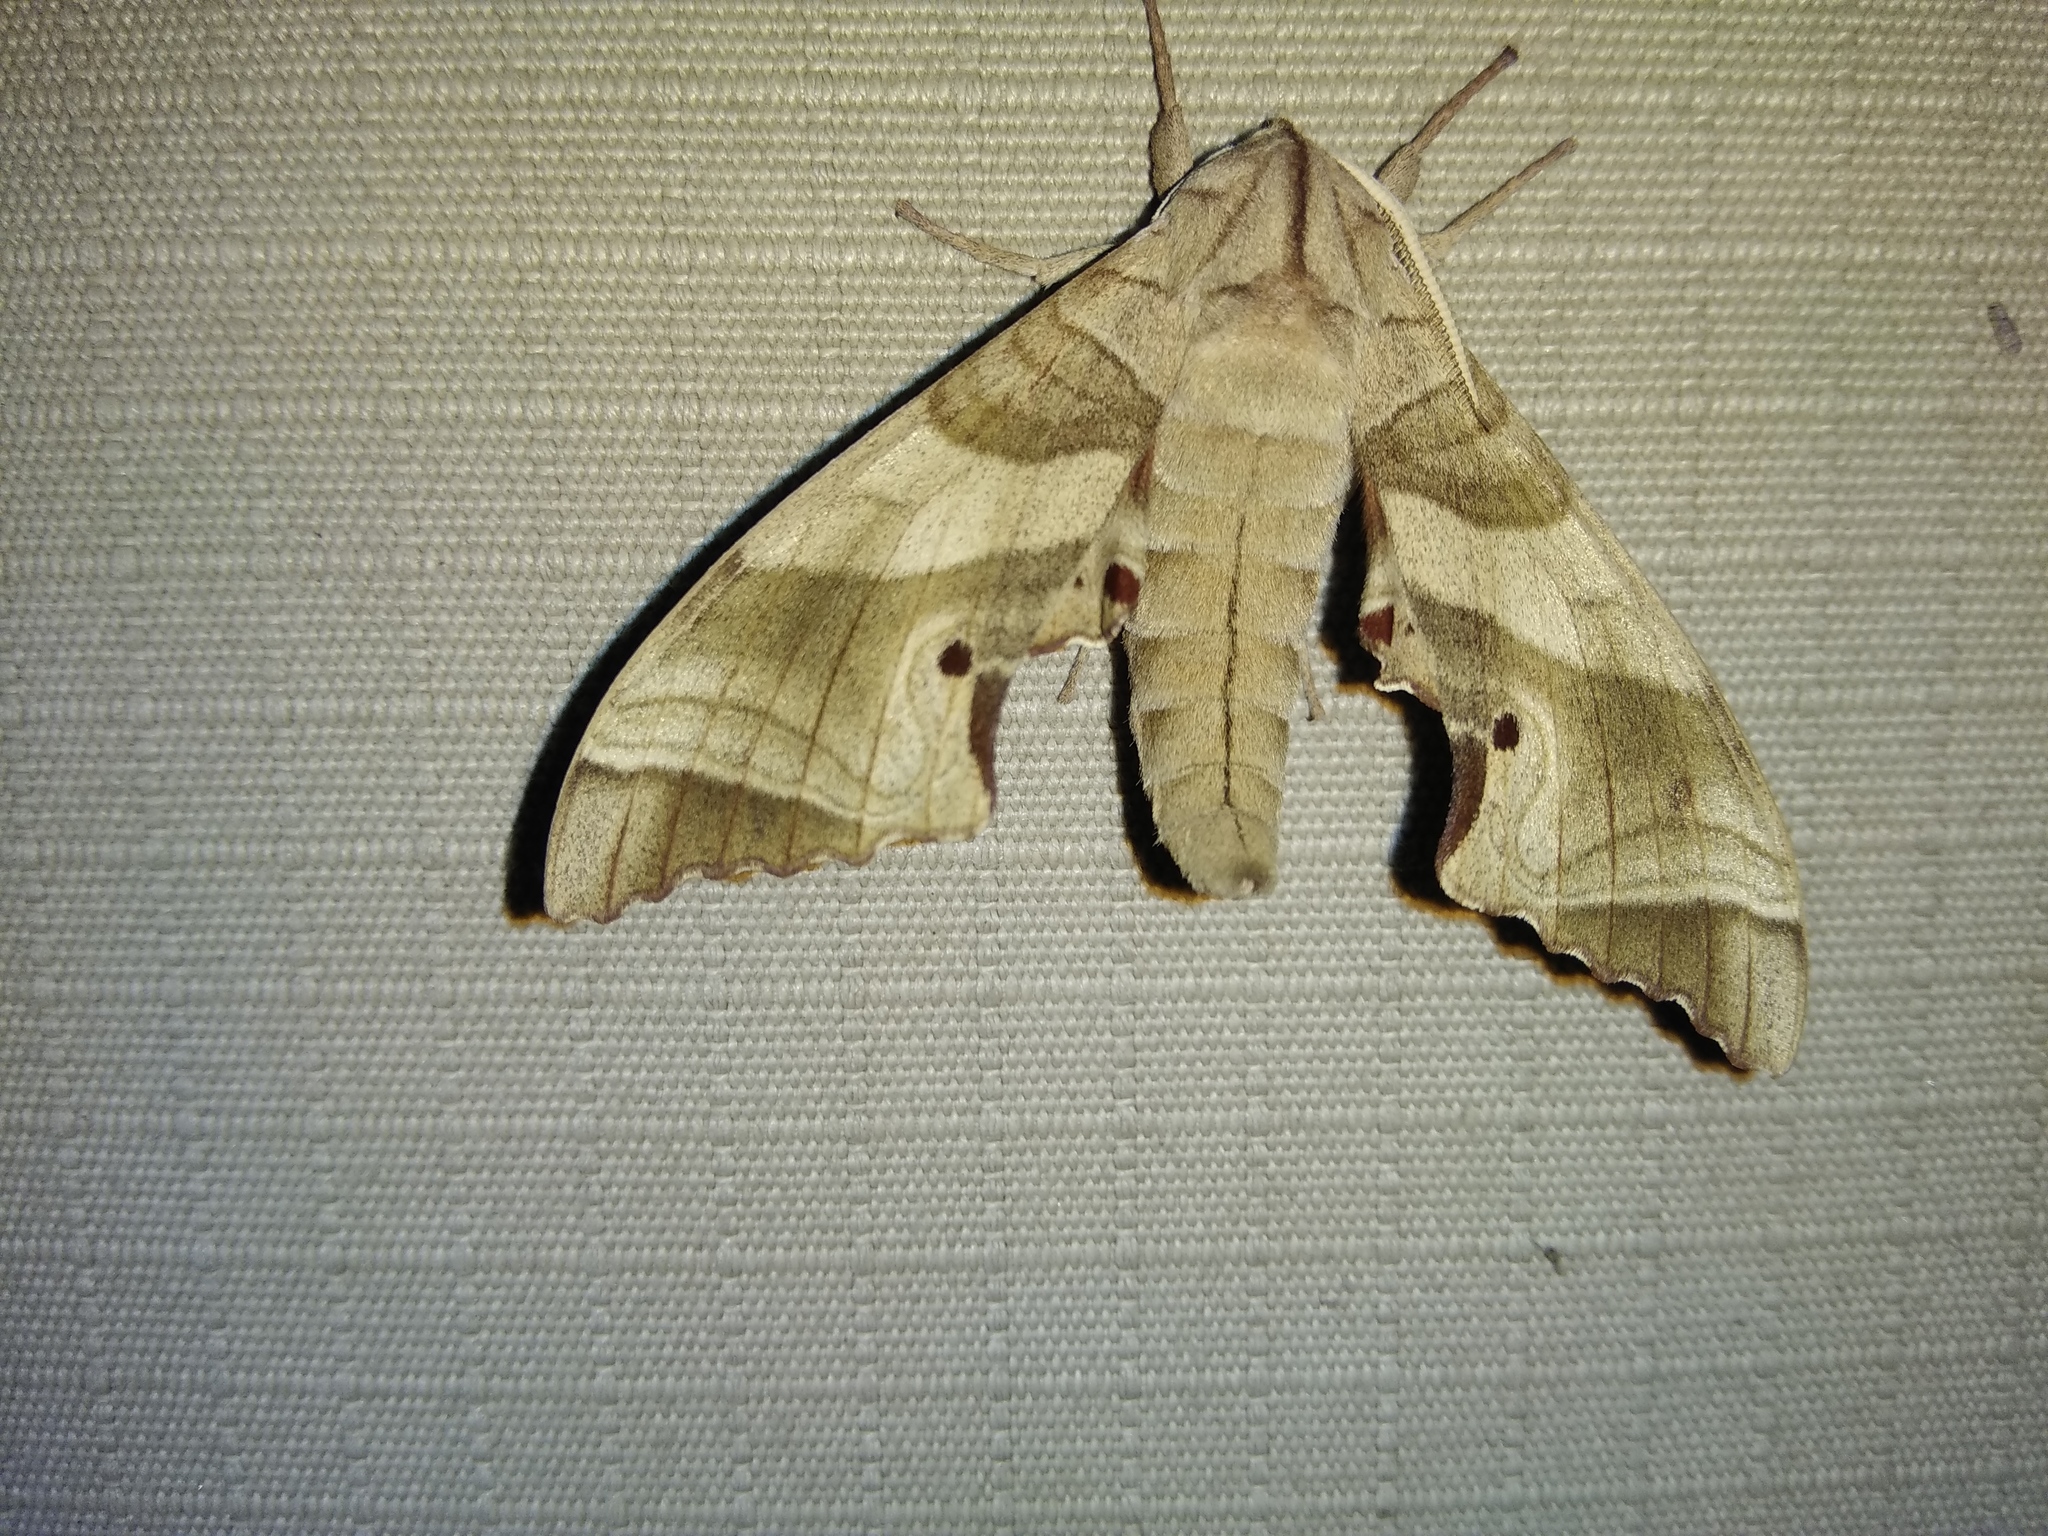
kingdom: Animalia
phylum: Arthropoda
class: Insecta
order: Lepidoptera
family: Sphingidae
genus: Marumba
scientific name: Marumba dyras
